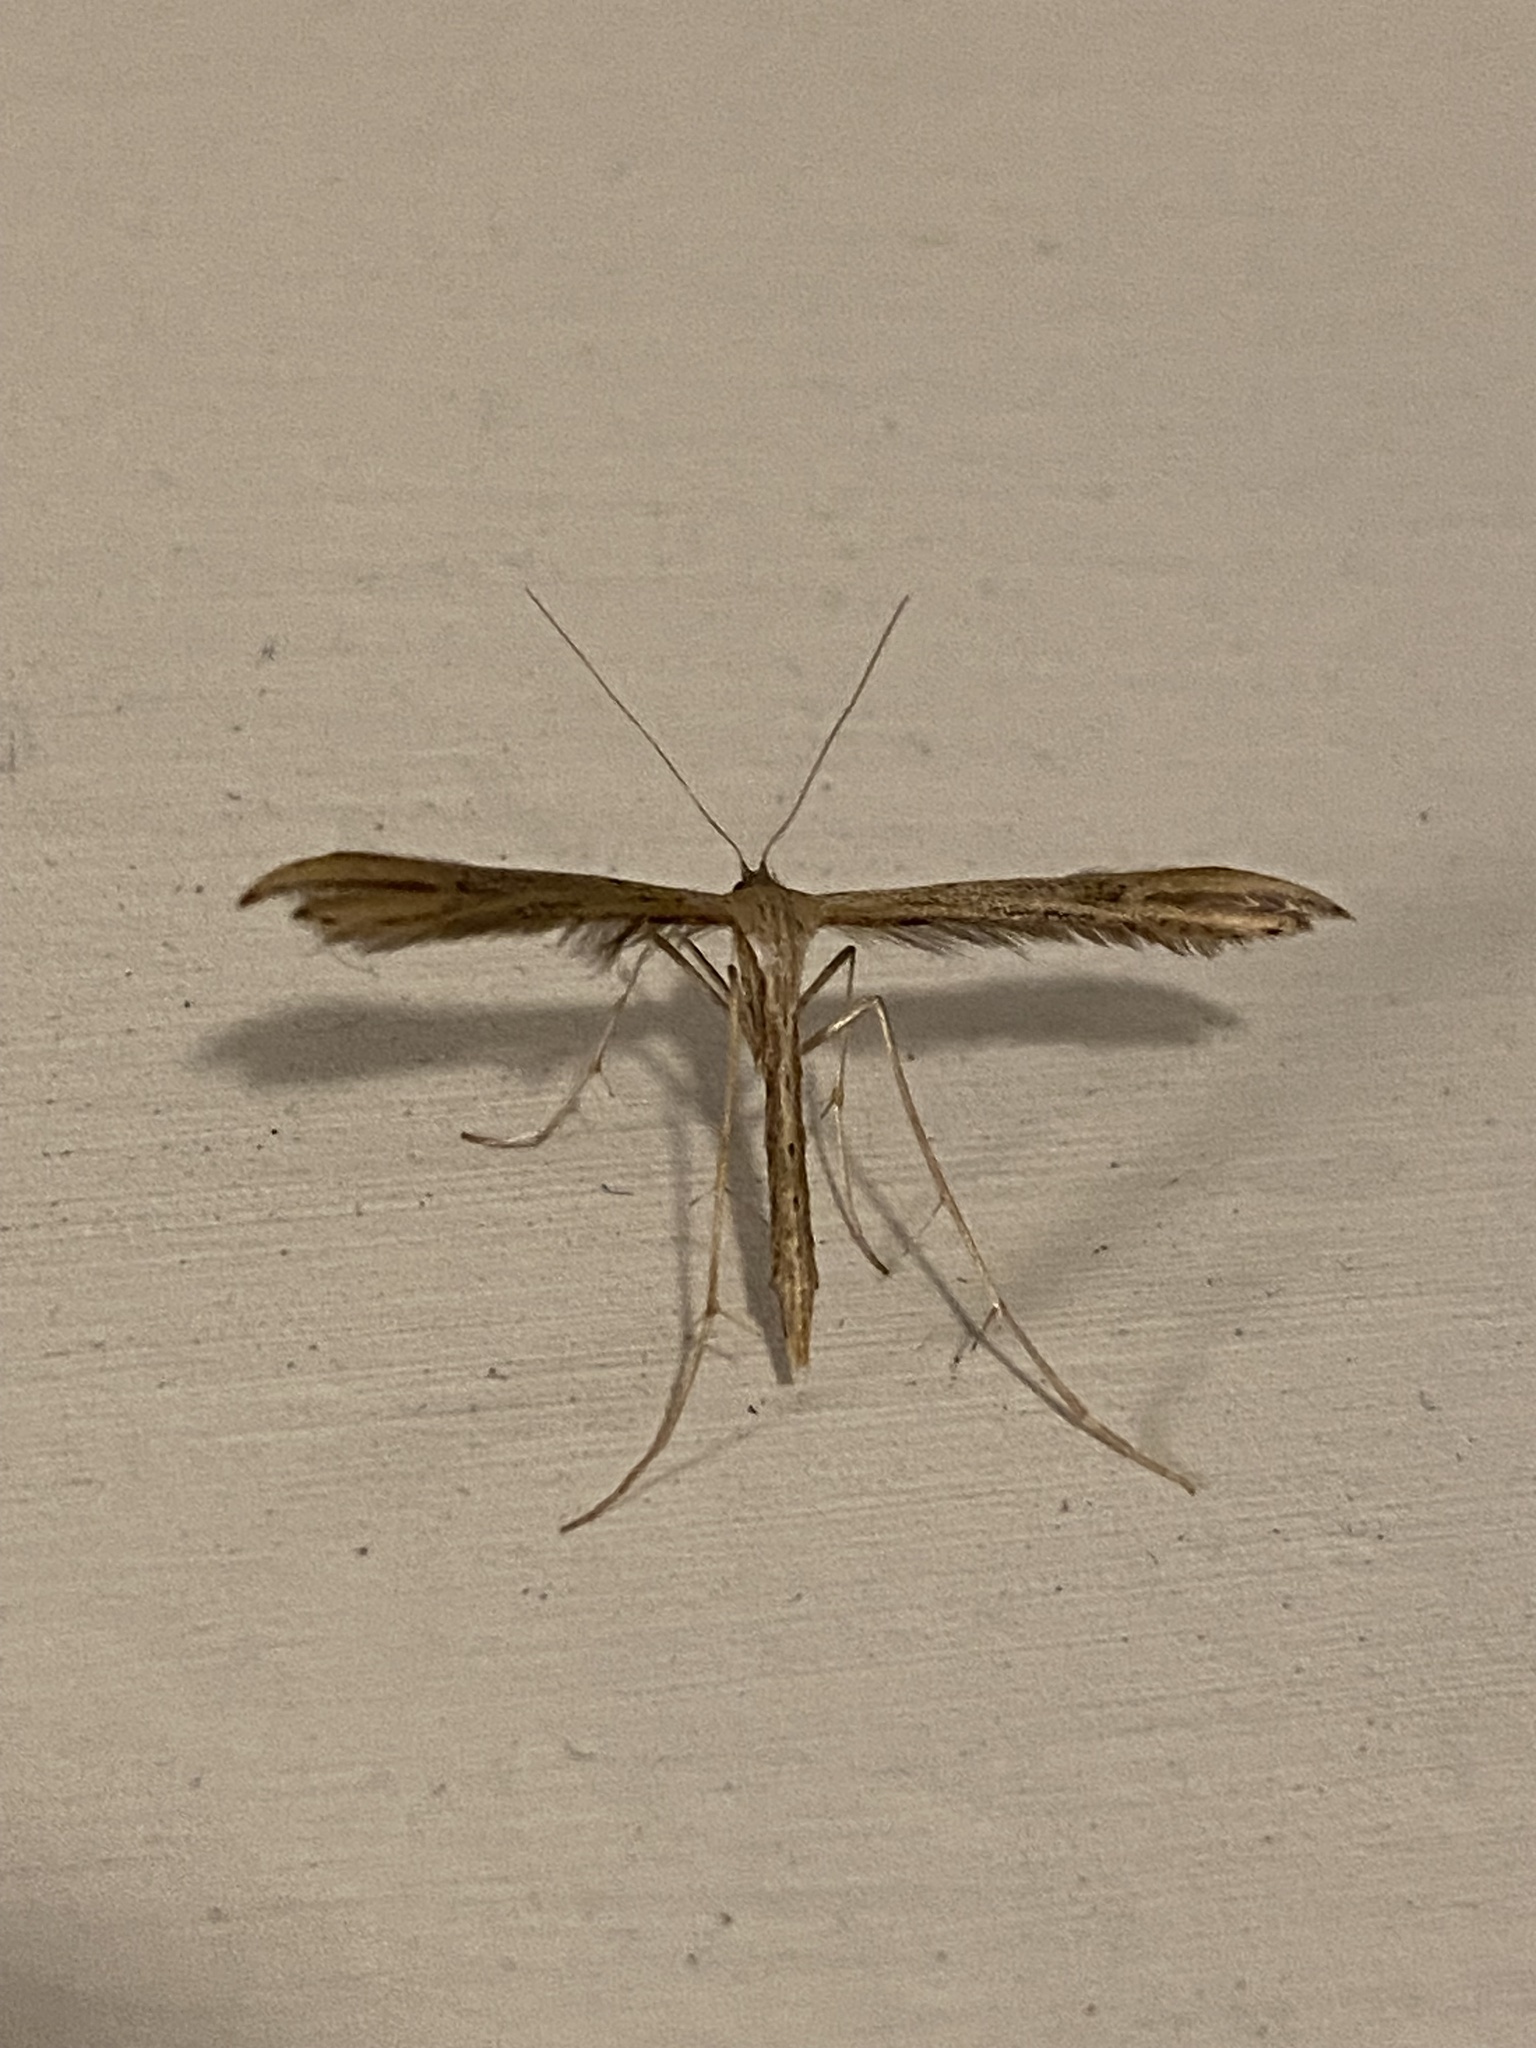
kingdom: Animalia
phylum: Arthropoda
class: Insecta
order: Lepidoptera
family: Pterophoridae
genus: Emmelina
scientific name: Emmelina monodactyla
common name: Common plume
